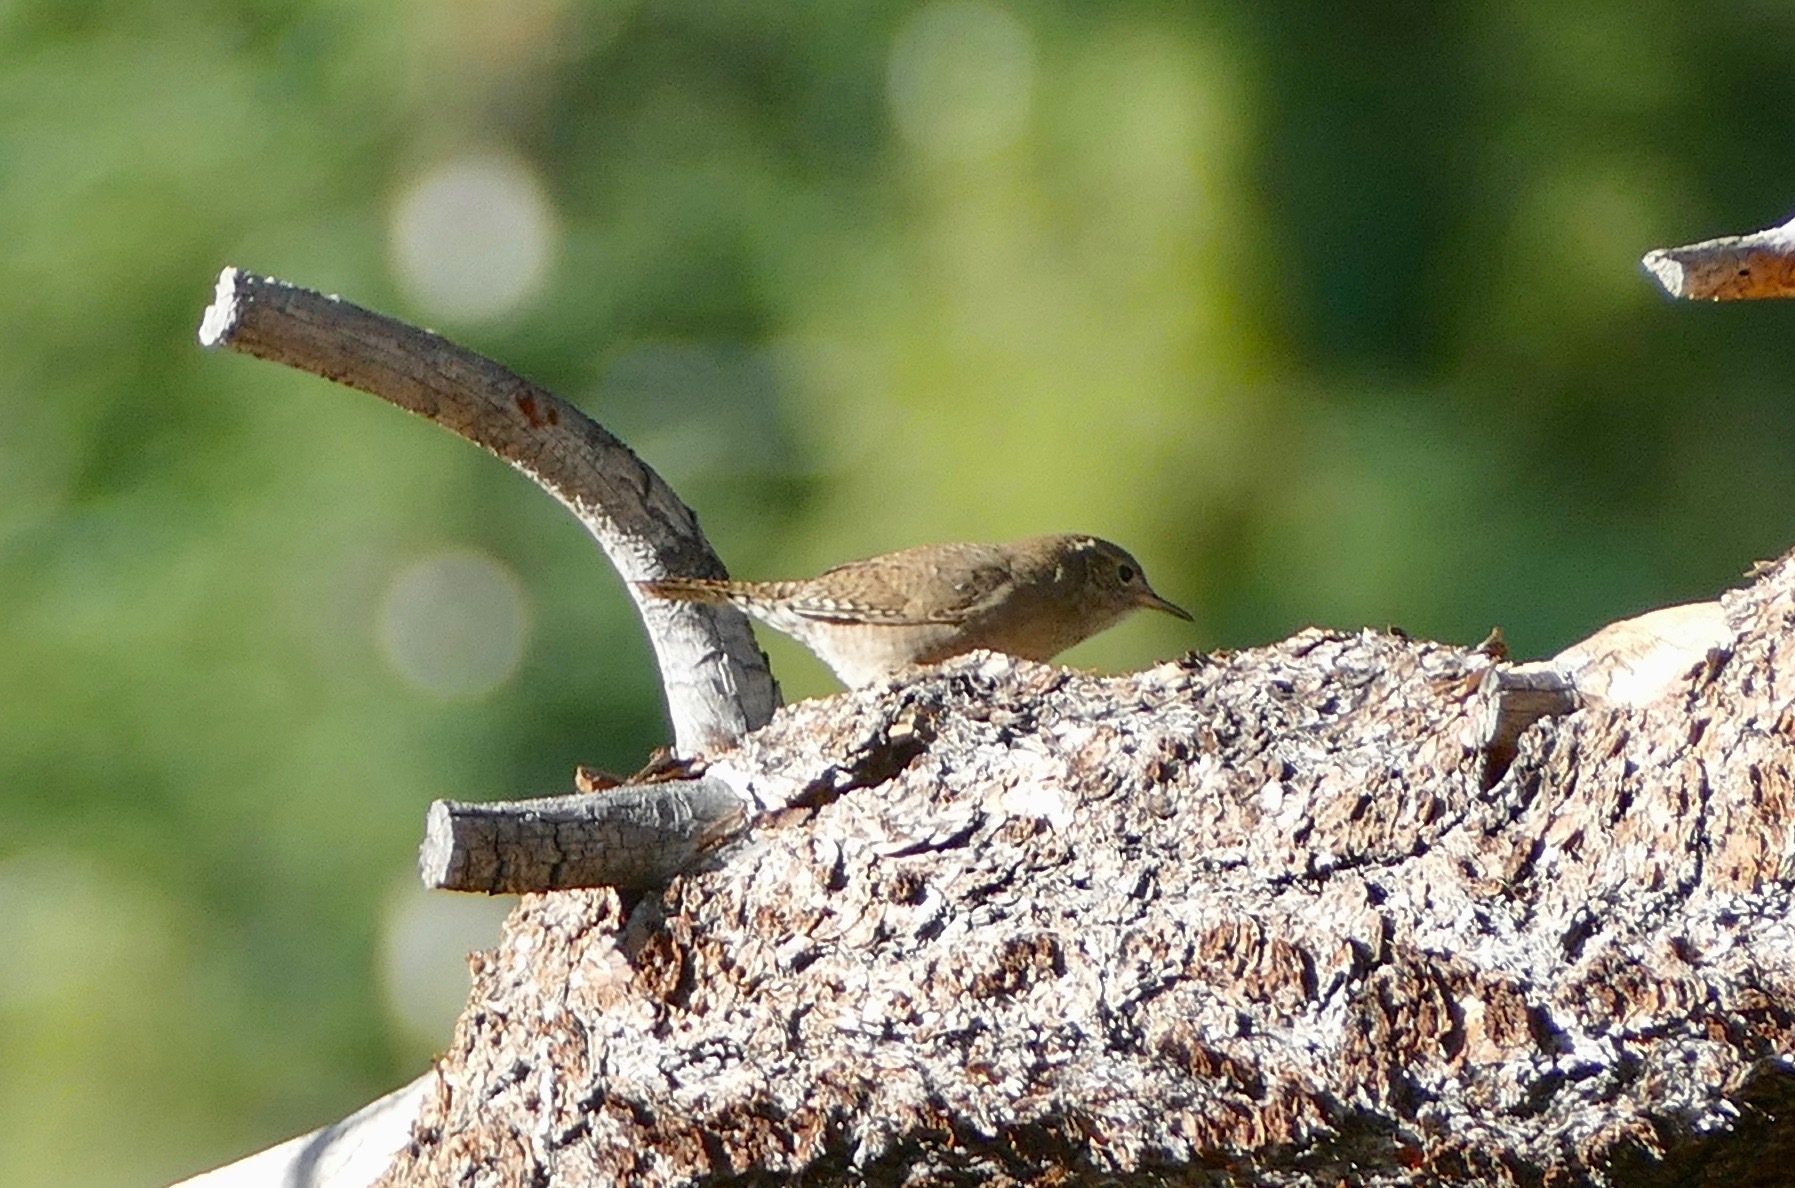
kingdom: Animalia
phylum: Chordata
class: Aves
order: Passeriformes
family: Troglodytidae
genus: Troglodytes
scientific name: Troglodytes aedon
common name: House wren
